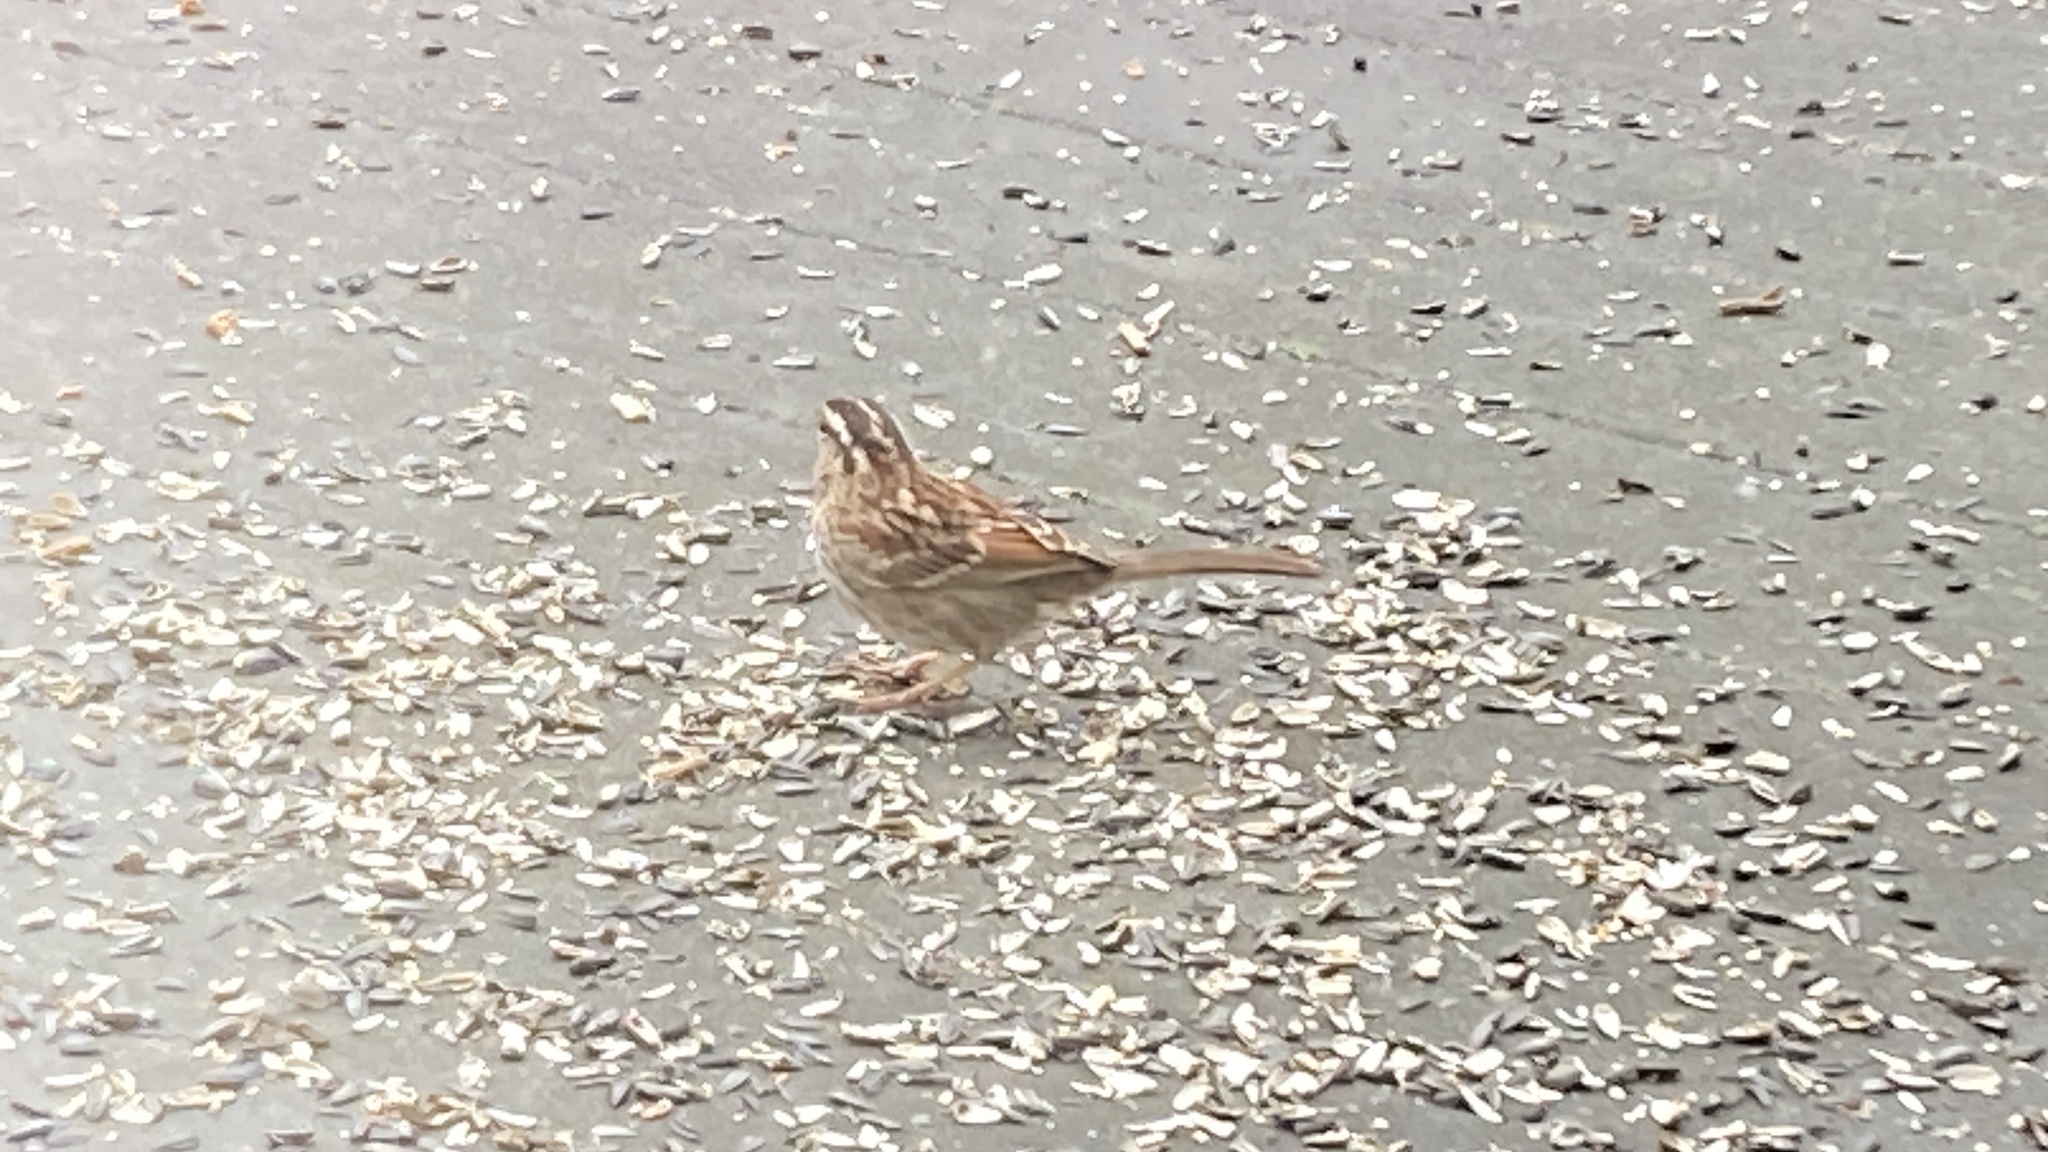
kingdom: Animalia
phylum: Chordata
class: Aves
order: Passeriformes
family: Passerellidae
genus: Zonotrichia
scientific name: Zonotrichia albicollis
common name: White-throated sparrow
